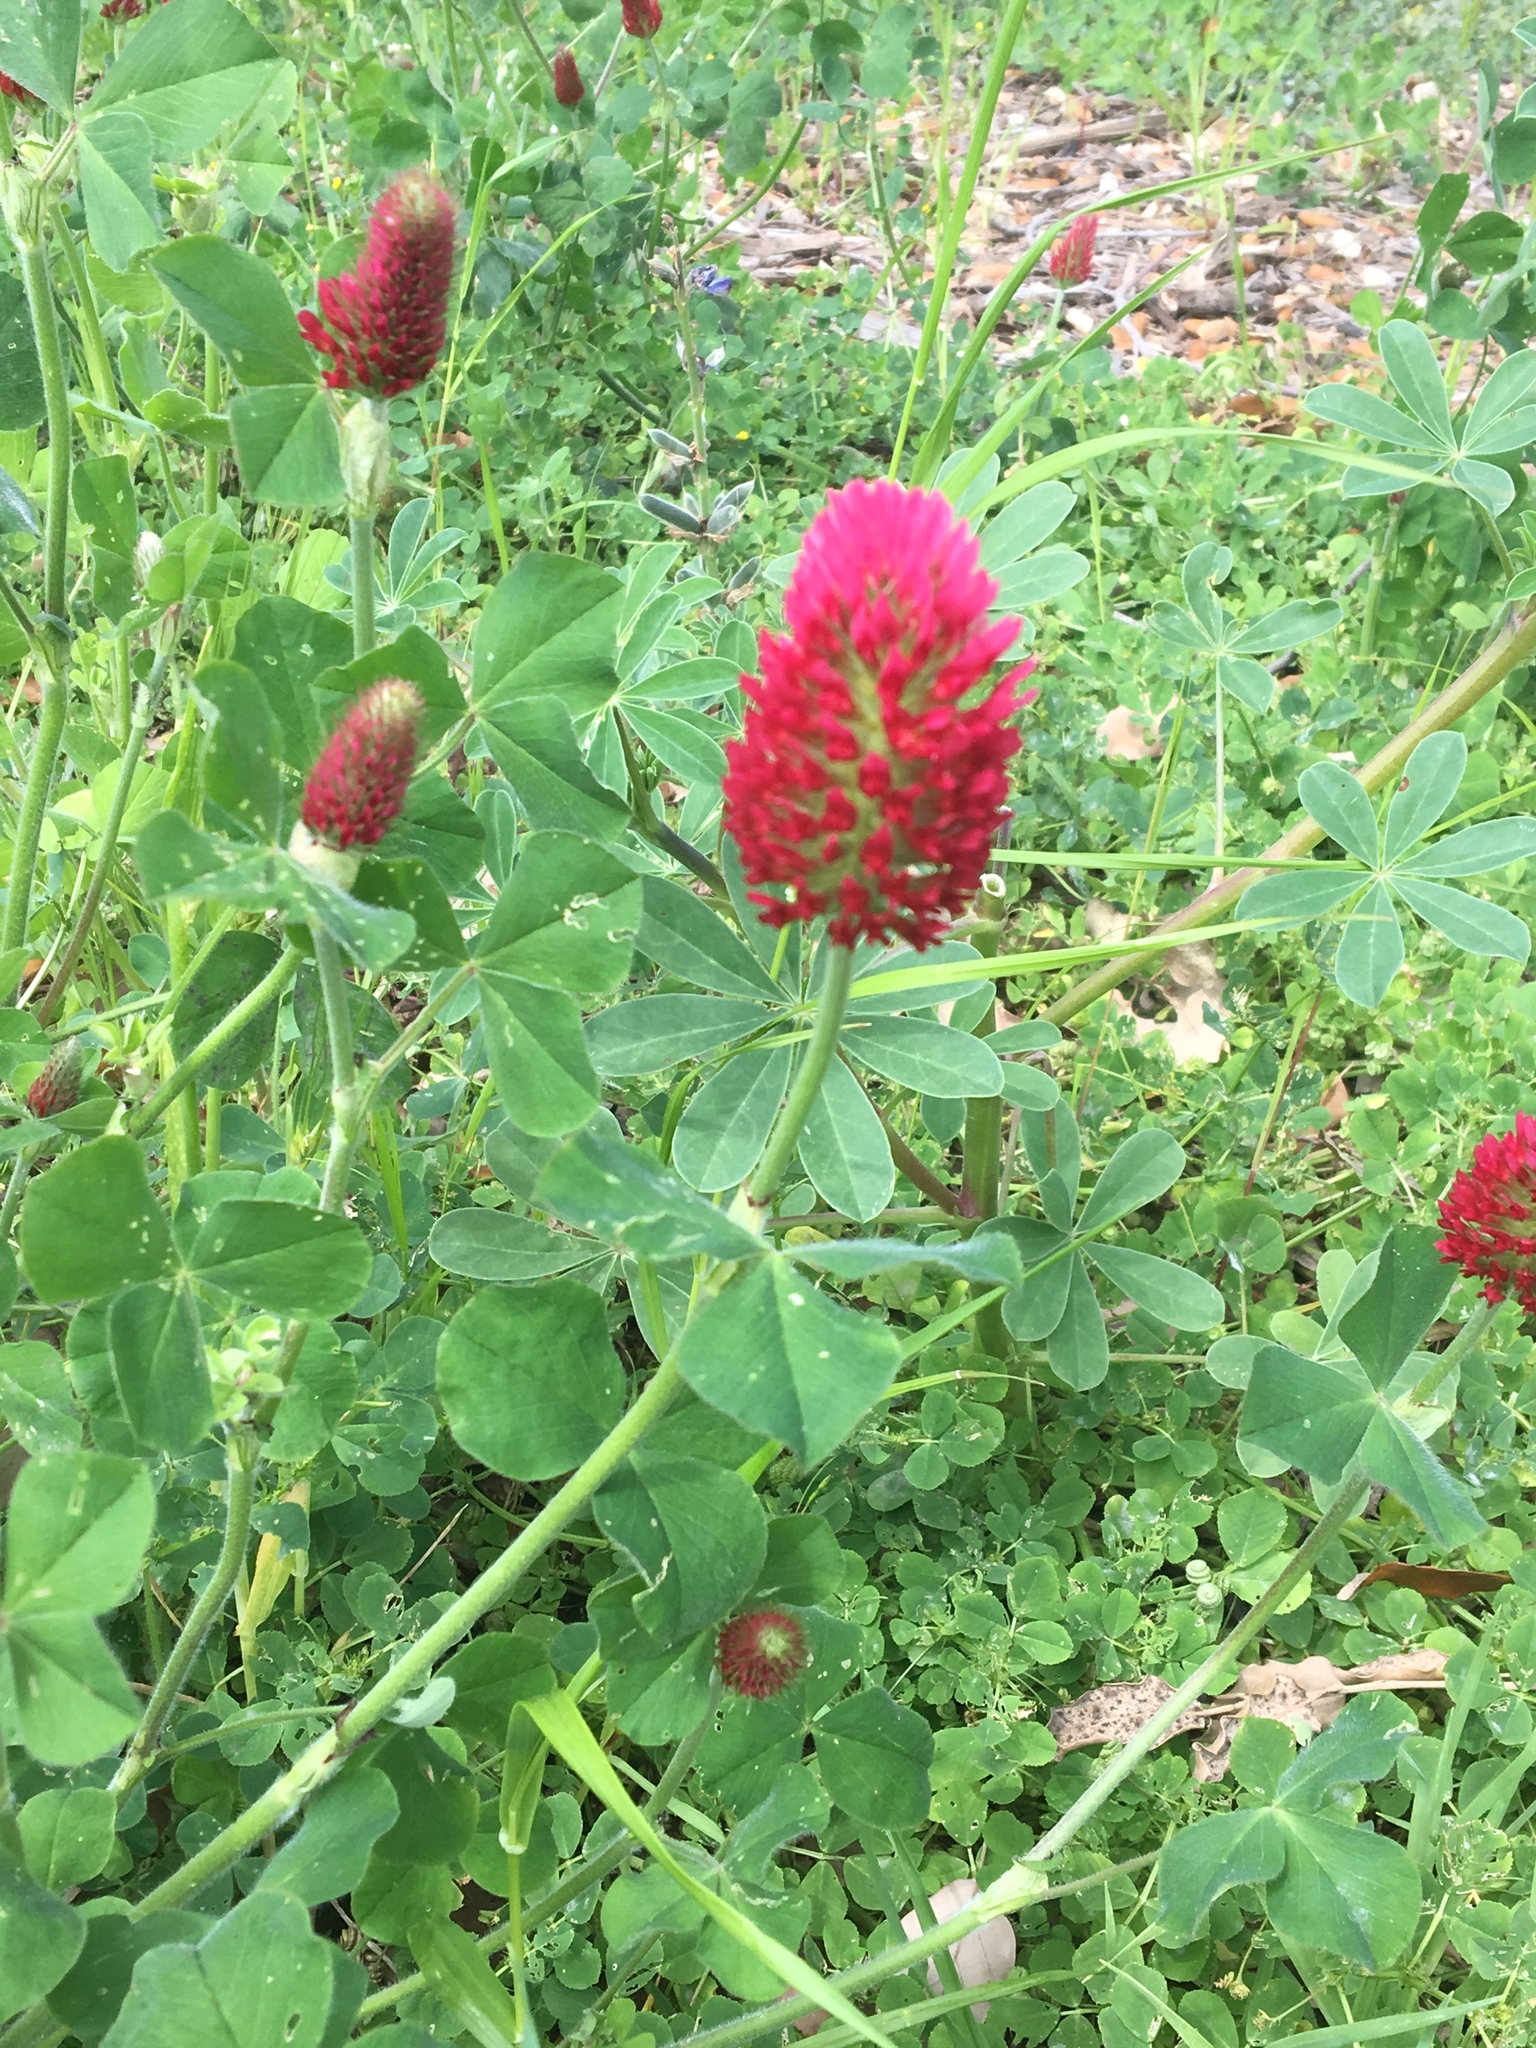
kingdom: Plantae
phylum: Tracheophyta
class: Magnoliopsida
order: Fabales
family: Fabaceae
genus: Trifolium
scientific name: Trifolium incarnatum
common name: Crimson clover
